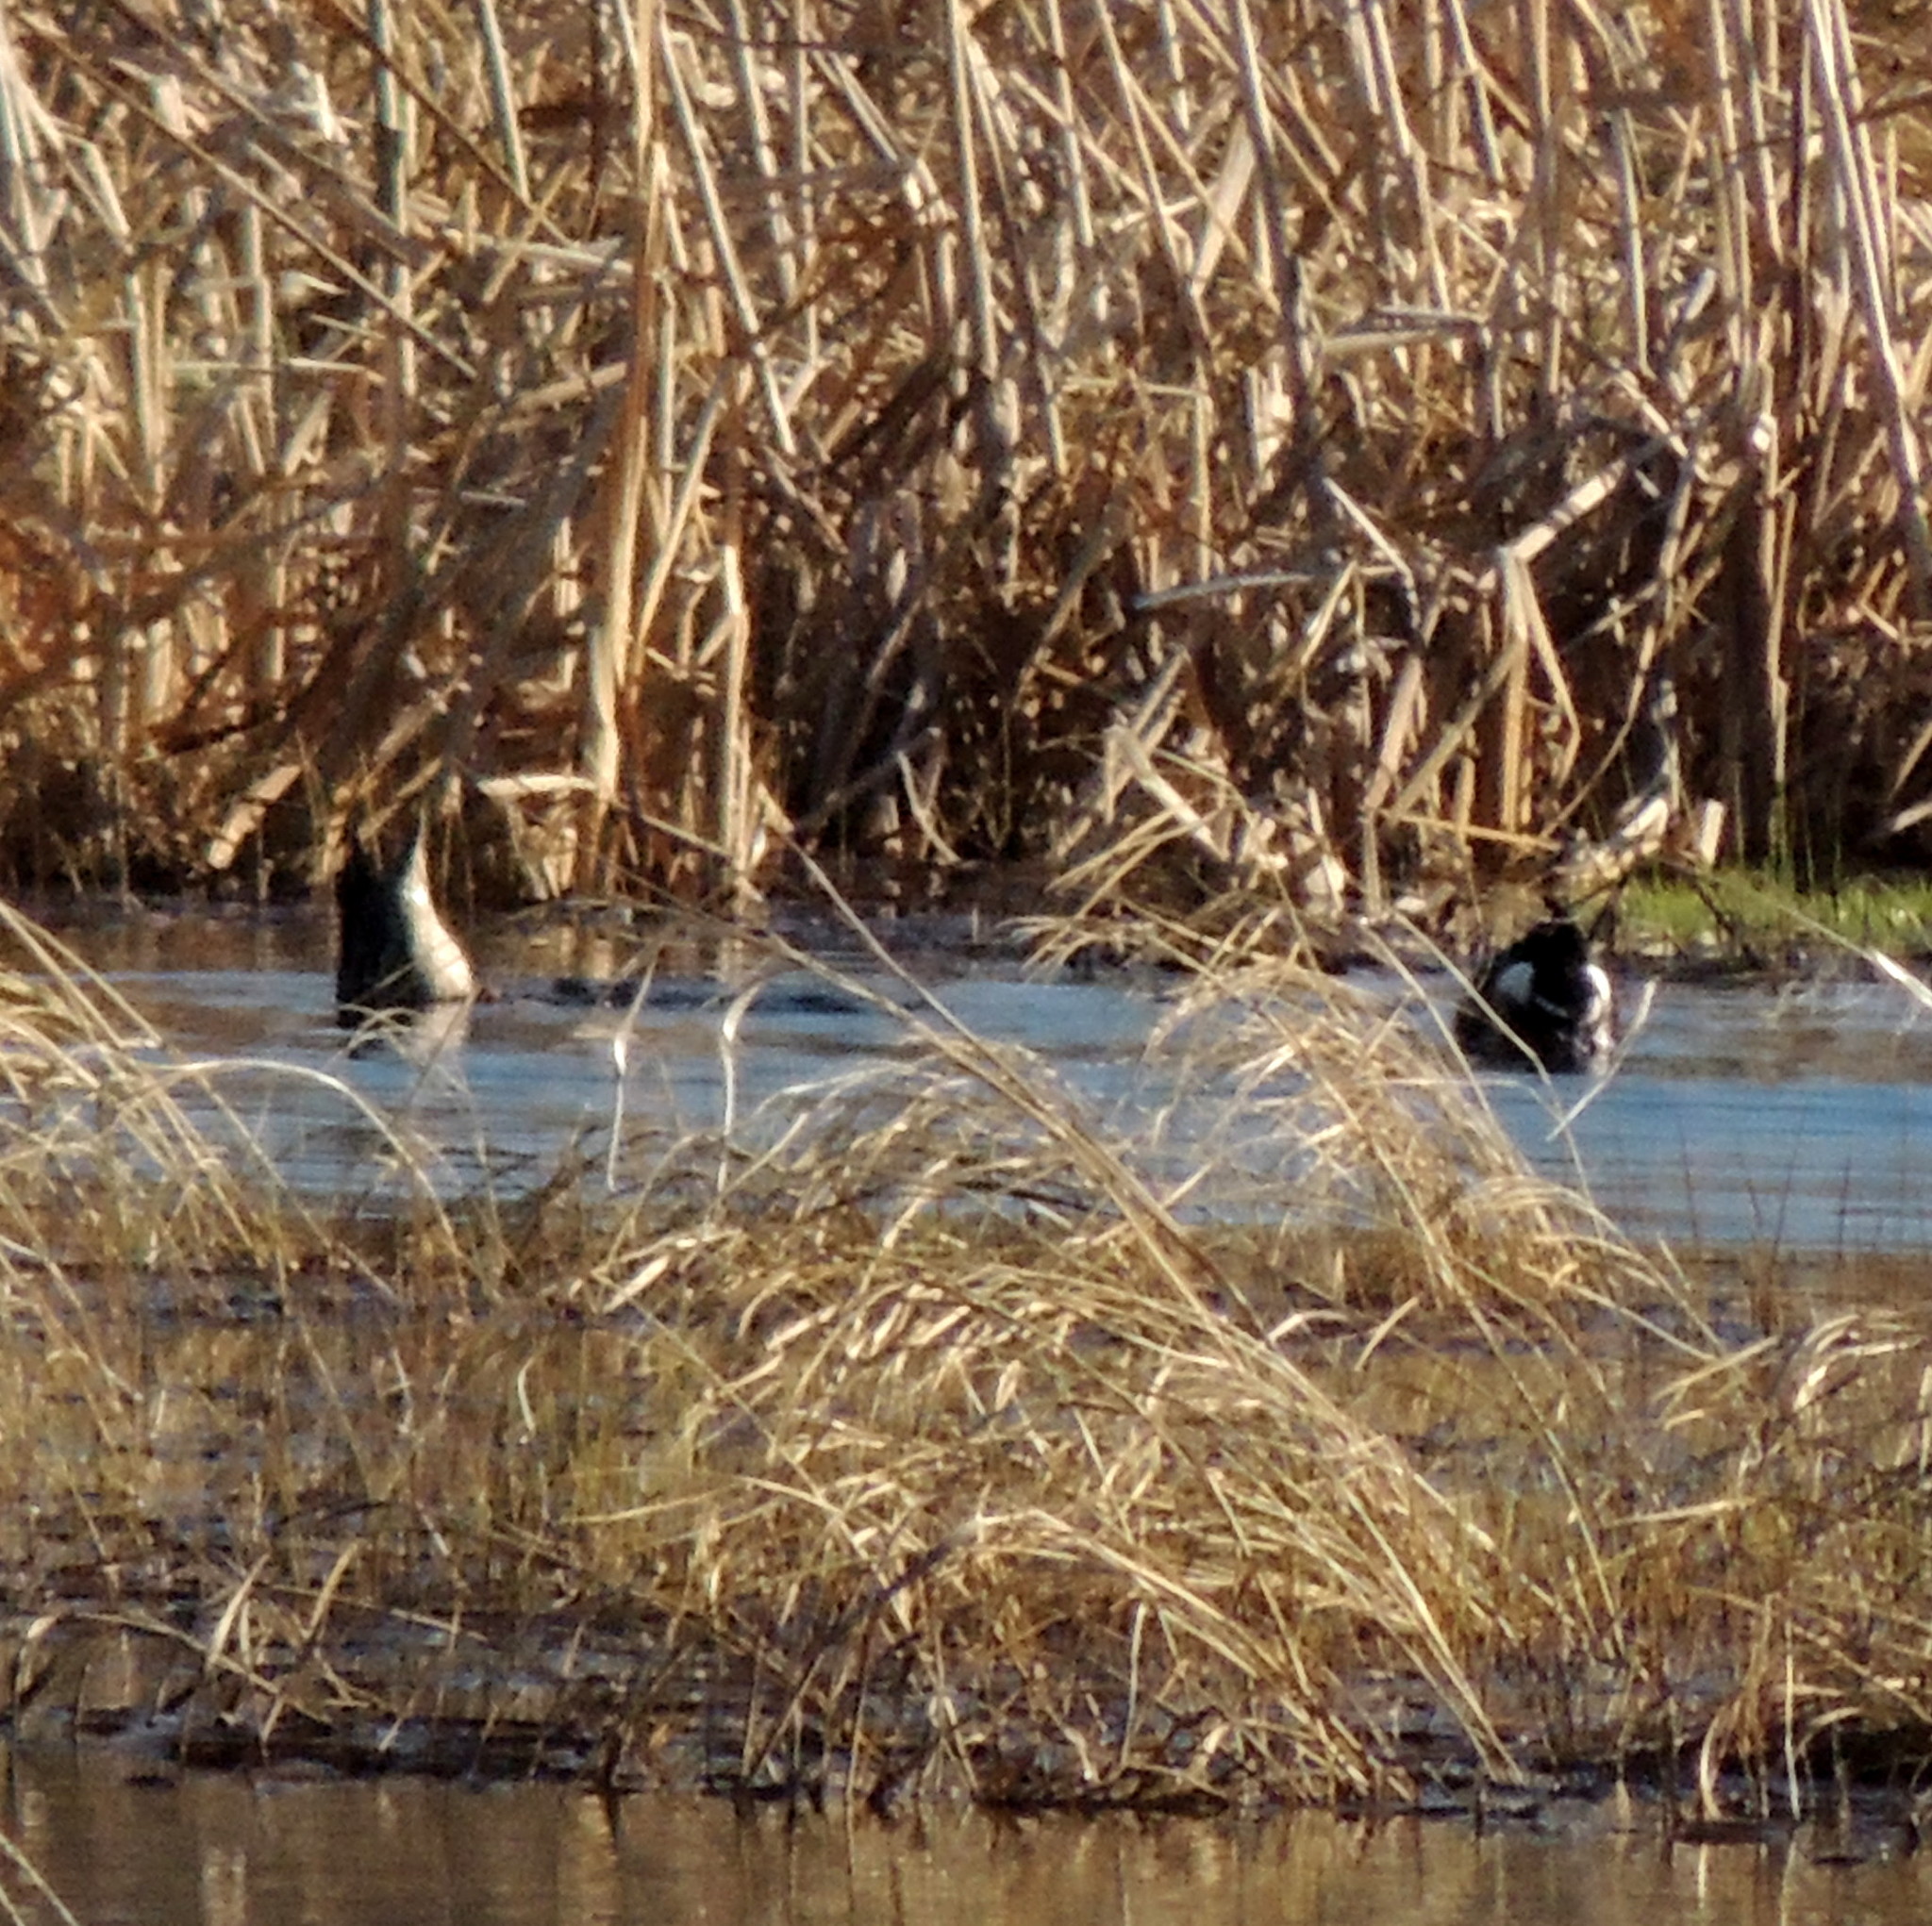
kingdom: Animalia
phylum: Chordata
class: Aves
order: Anseriformes
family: Anatidae
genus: Spatula
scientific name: Spatula clypeata
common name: Northern shoveler
